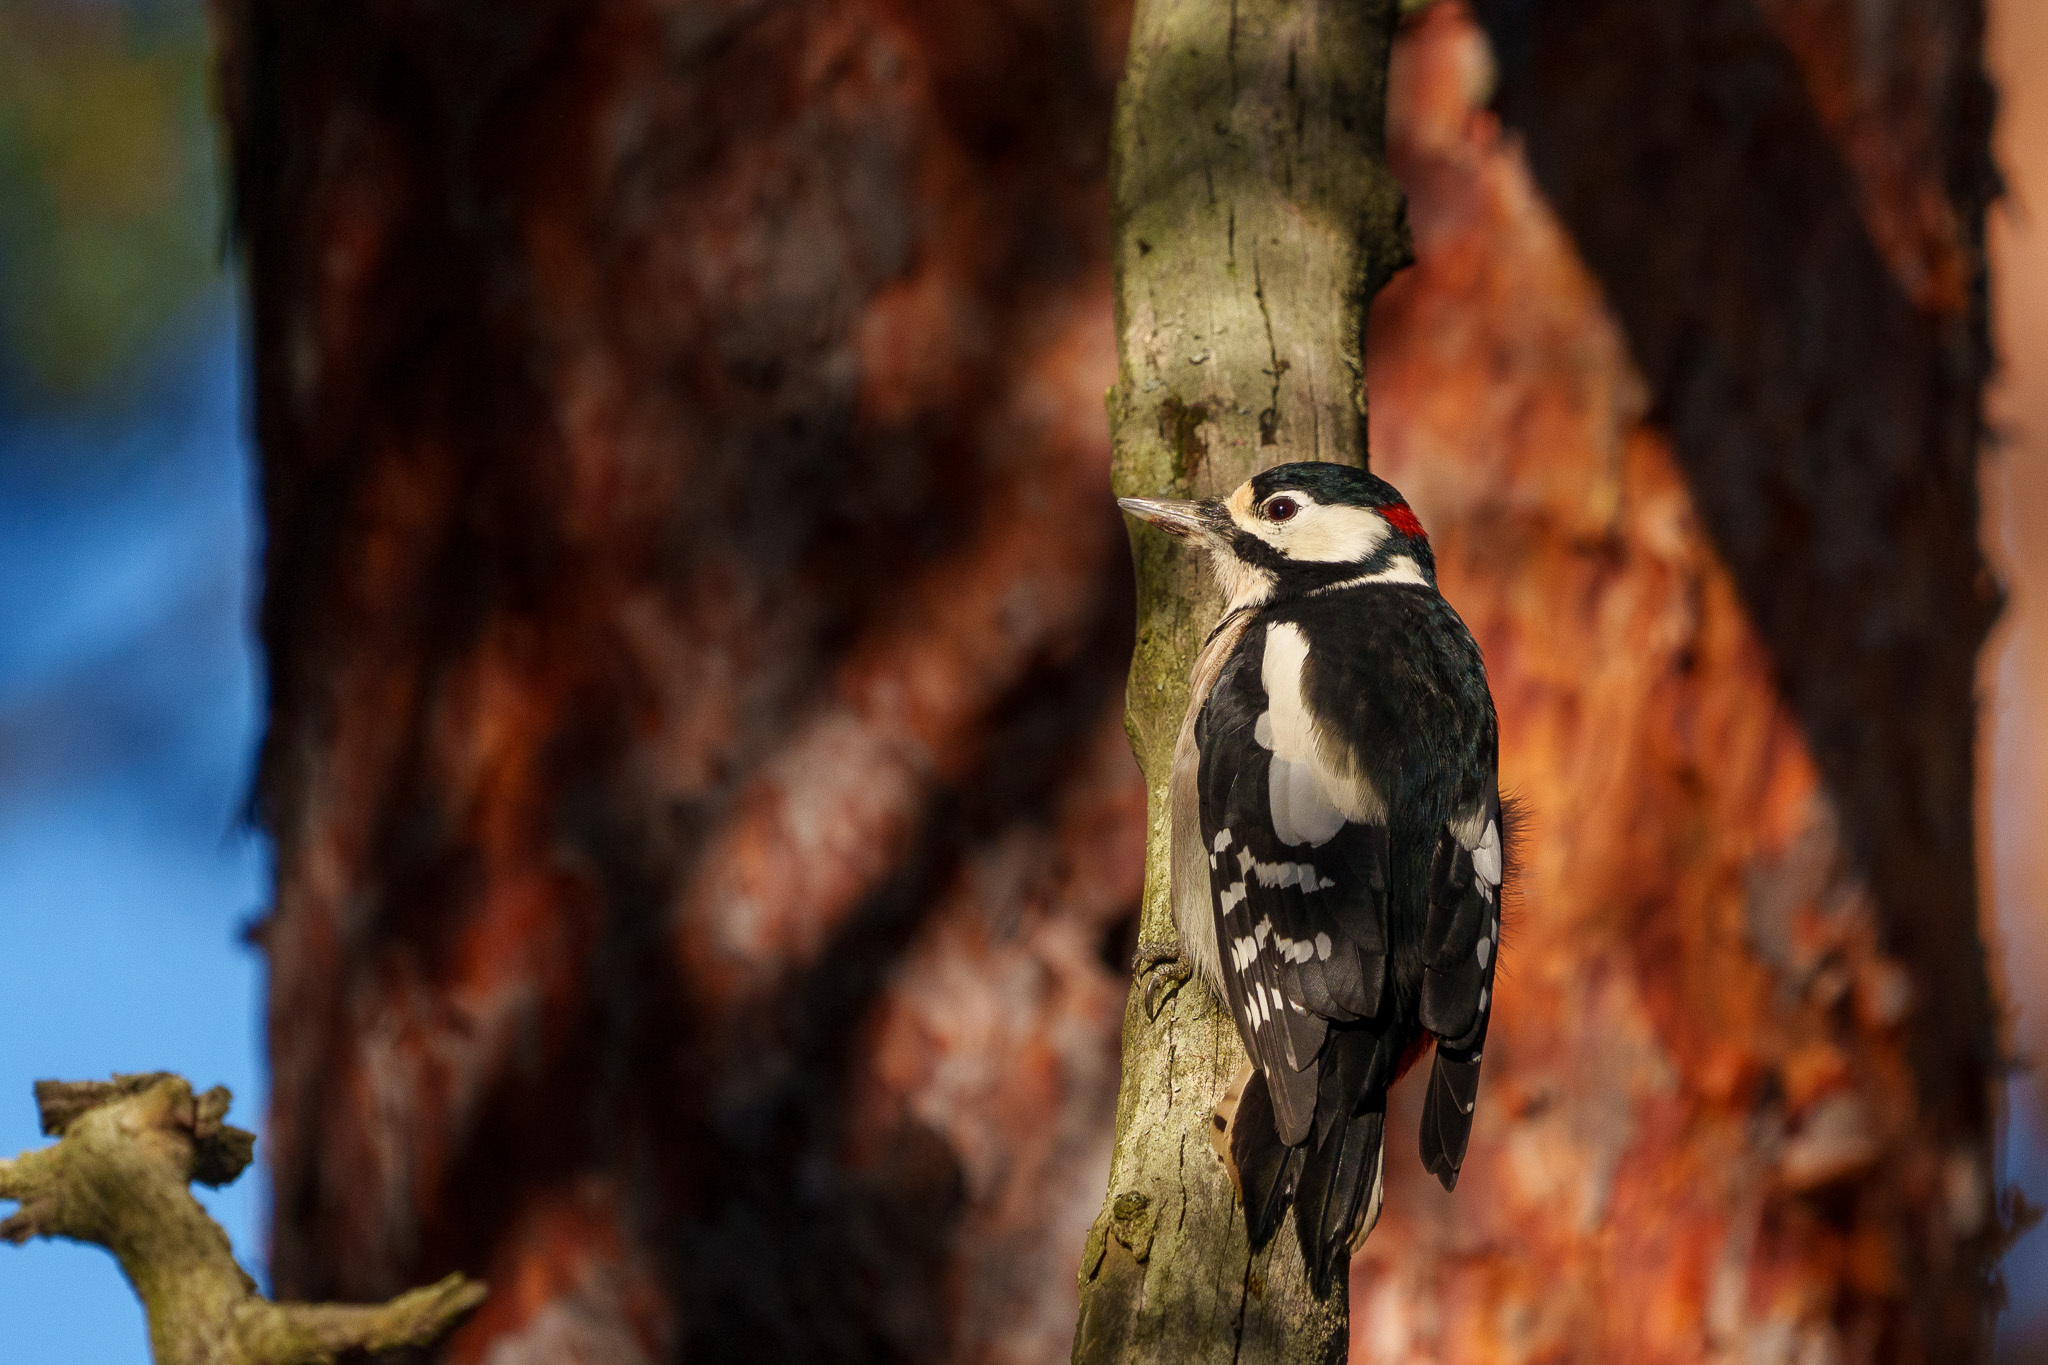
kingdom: Animalia
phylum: Chordata
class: Aves
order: Piciformes
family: Picidae
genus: Dendrocopos
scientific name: Dendrocopos major
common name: Great spotted woodpecker
